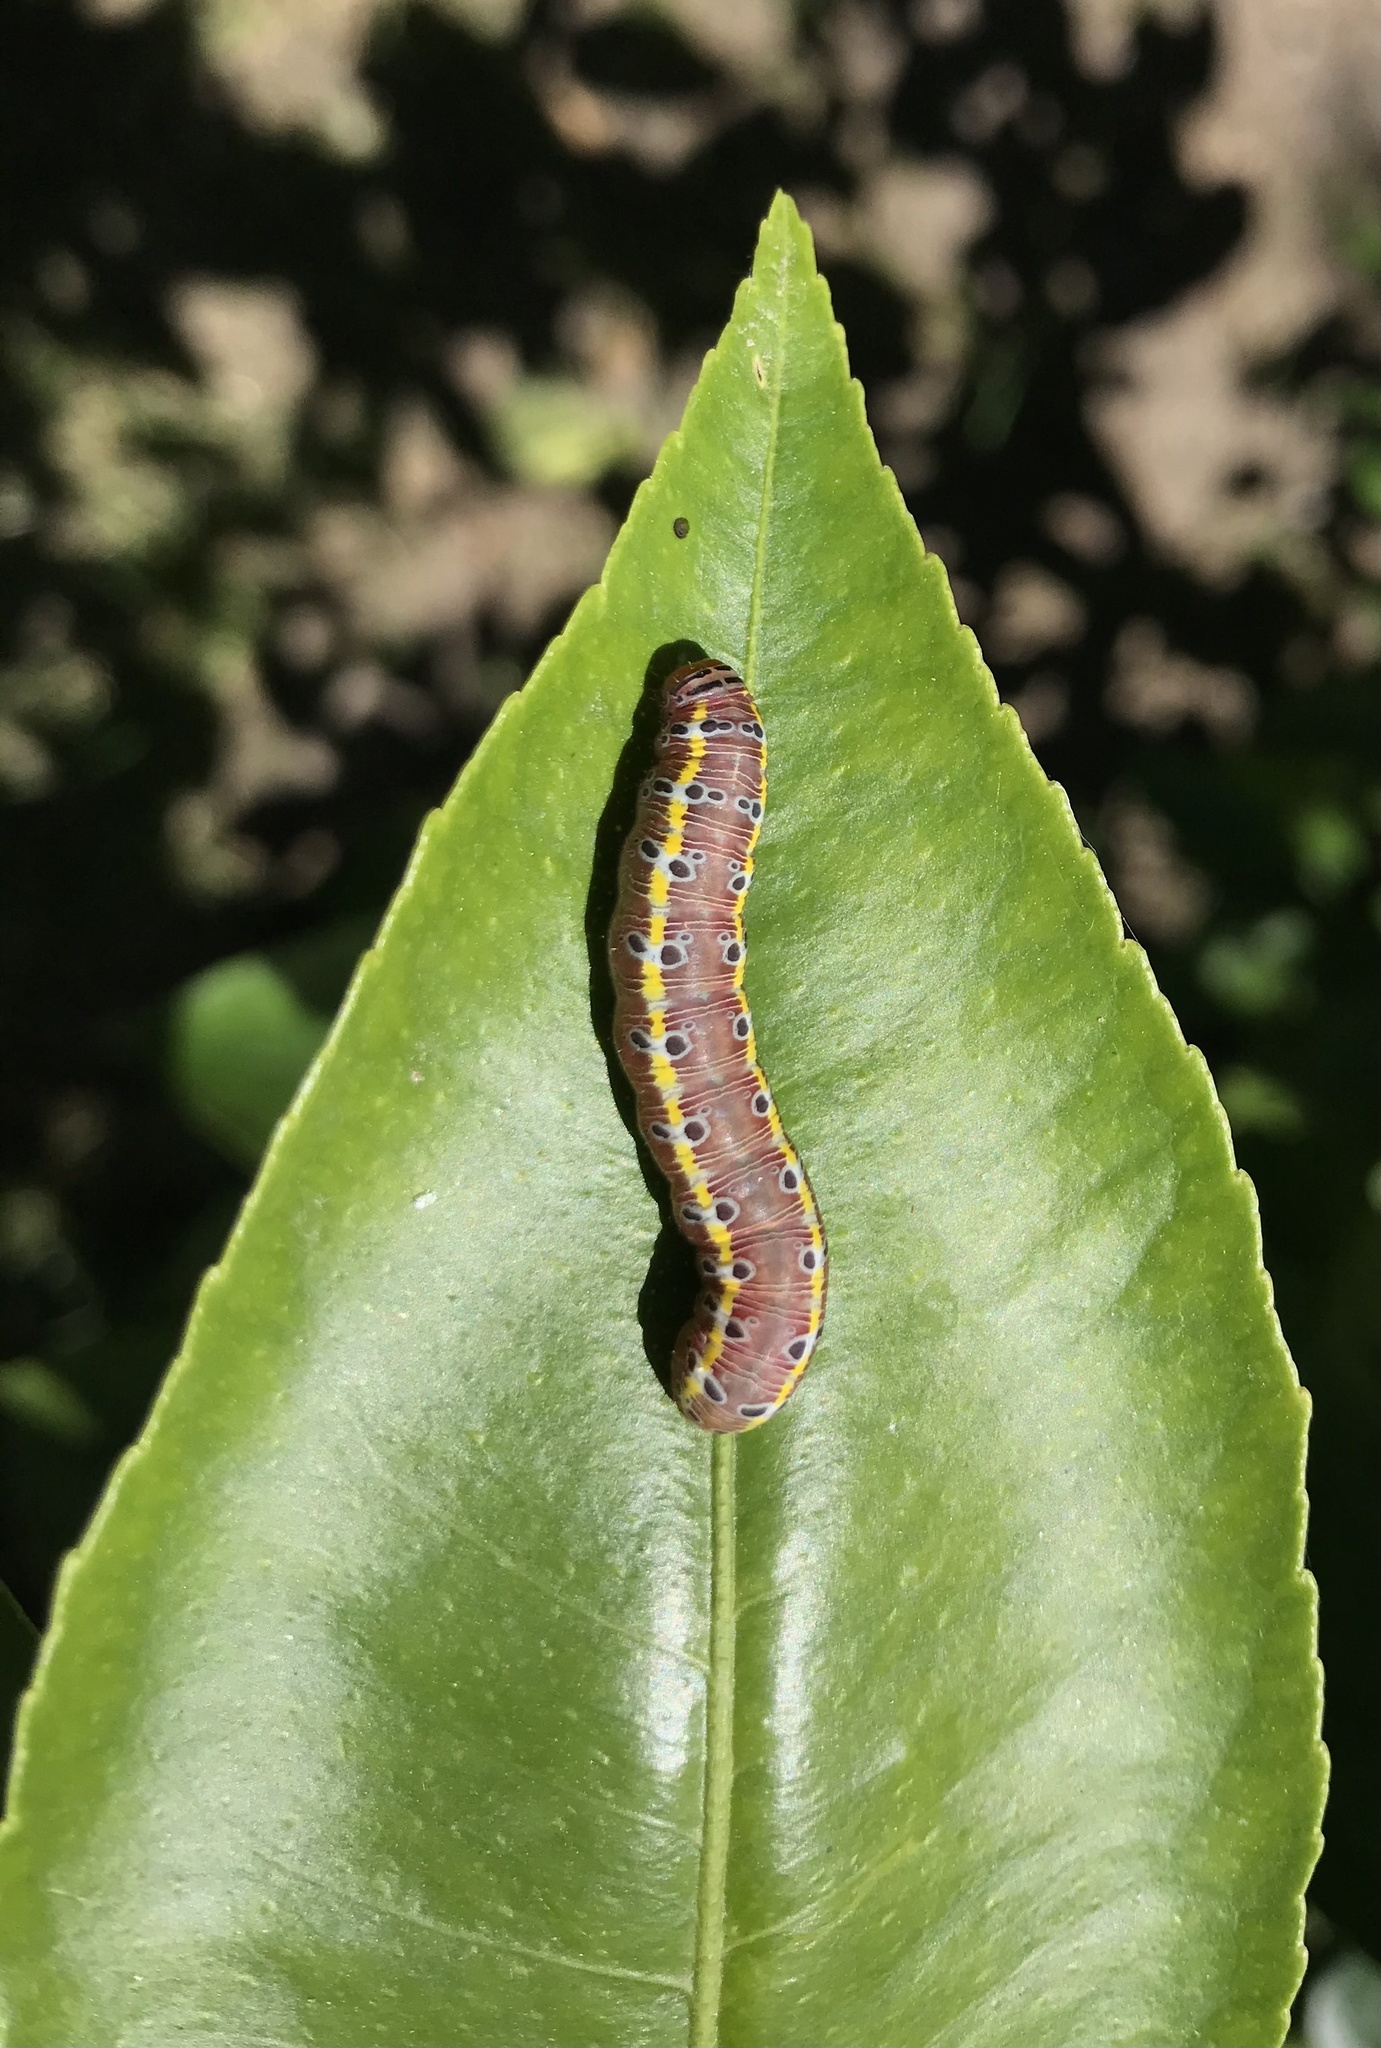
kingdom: Animalia
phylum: Arthropoda
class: Insecta
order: Lepidoptera
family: Noctuidae
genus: Argyrosticta
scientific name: Argyrosticta decumana
